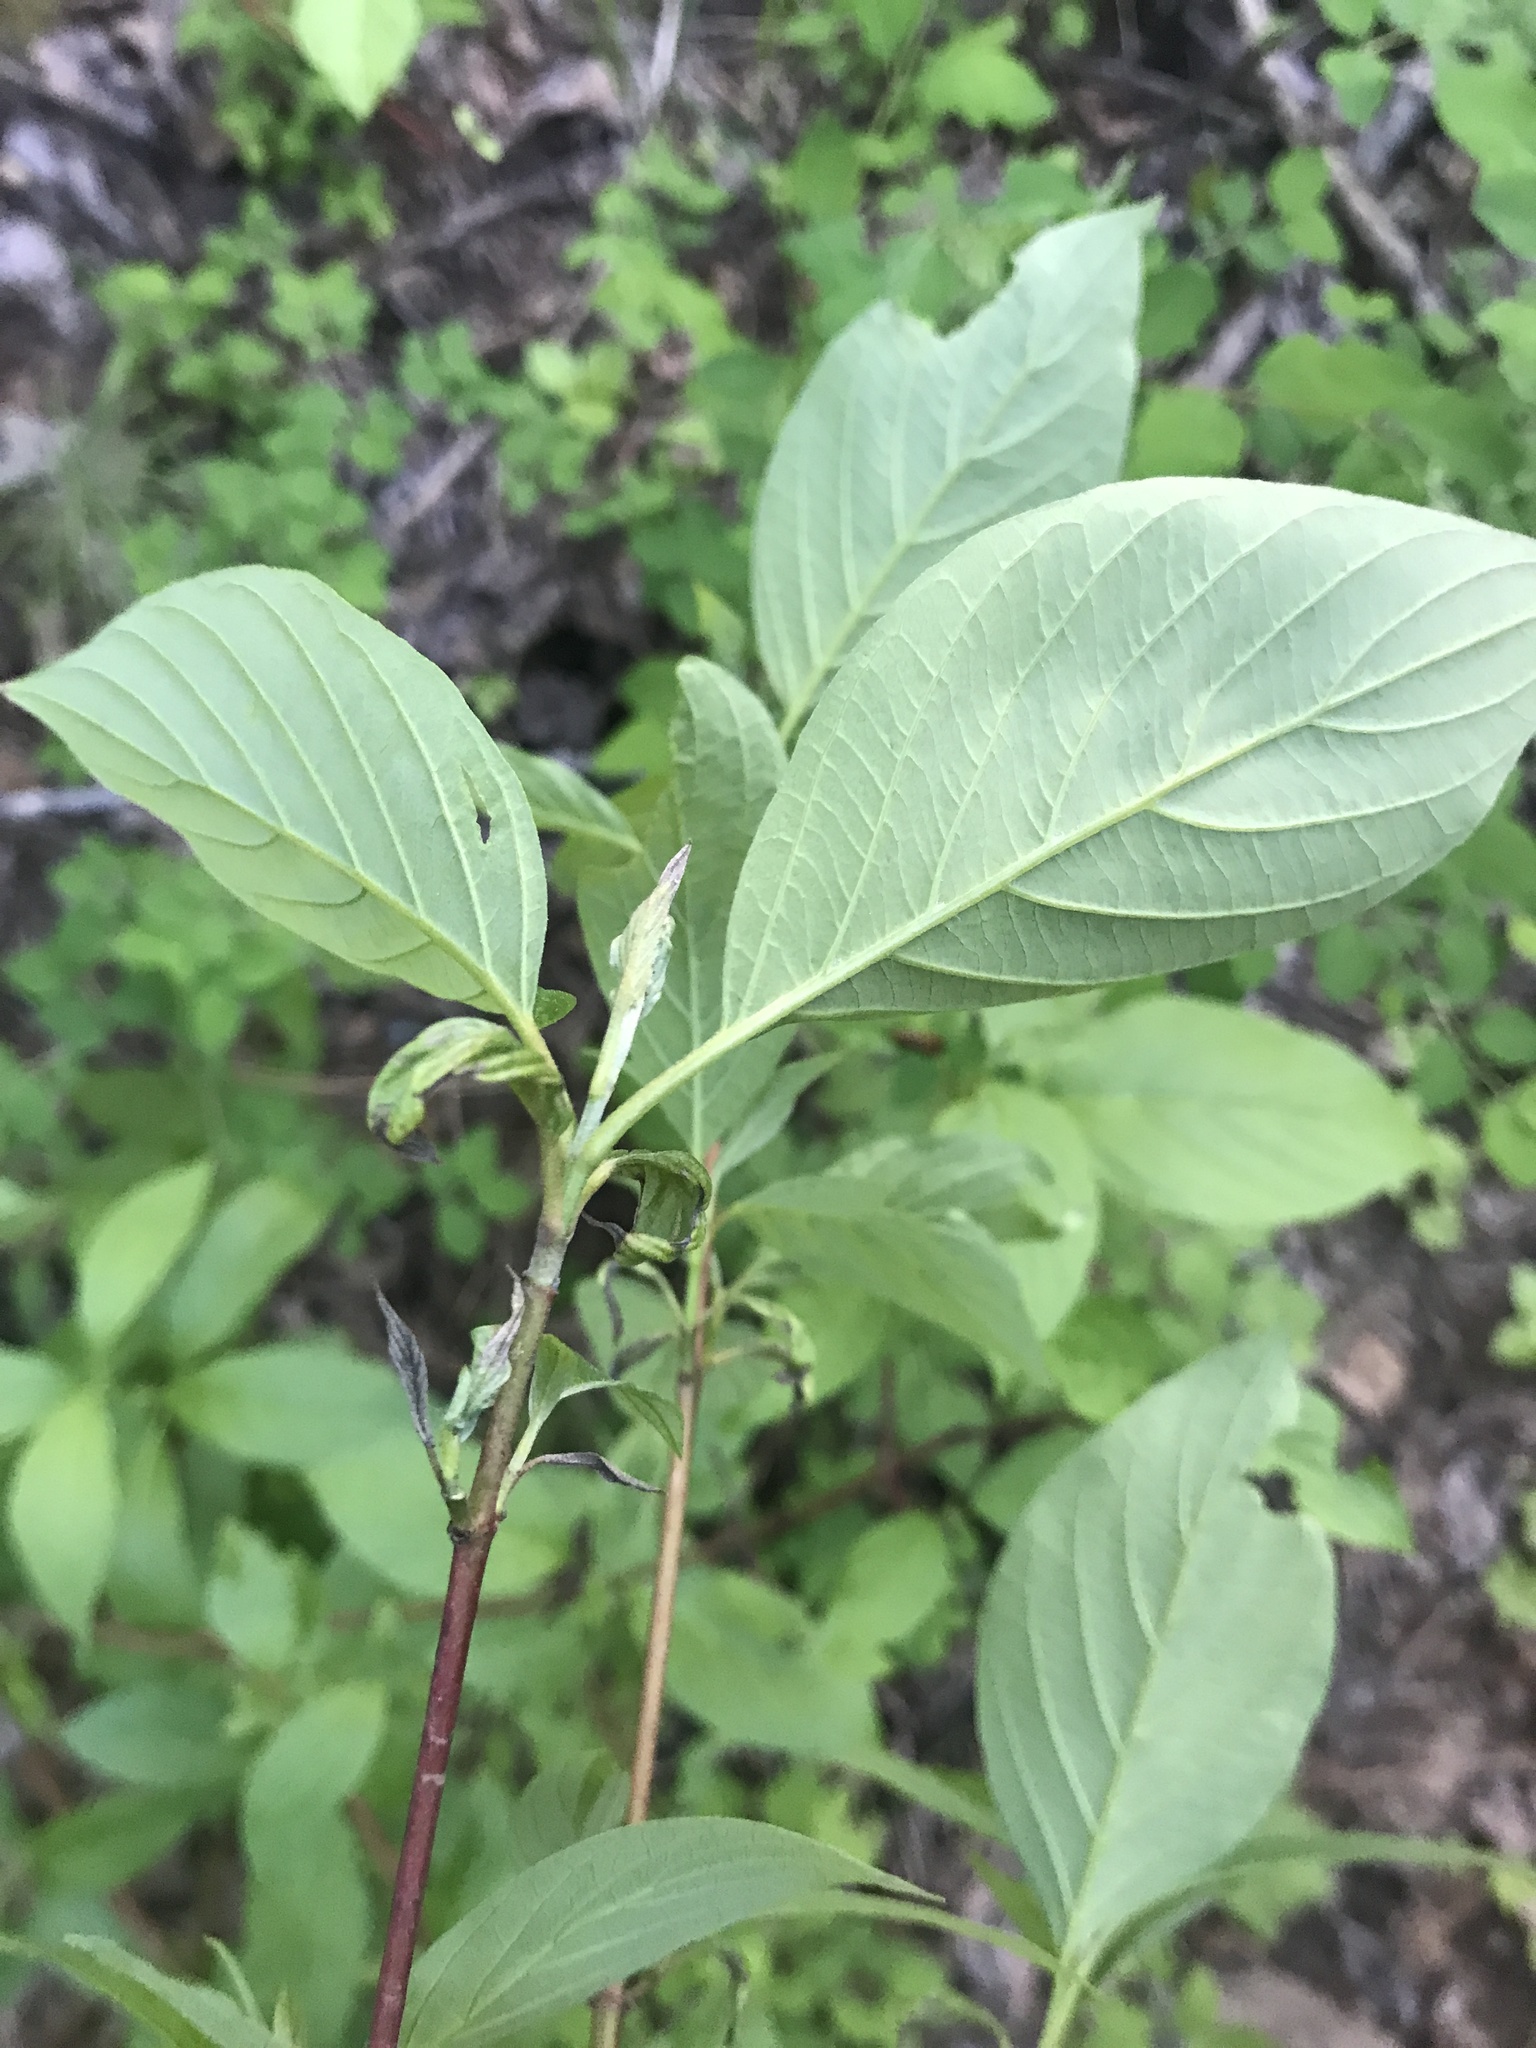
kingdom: Plantae
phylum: Tracheophyta
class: Magnoliopsida
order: Cornales
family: Cornaceae
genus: Cornus
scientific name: Cornus sericea
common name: Red-osier dogwood
